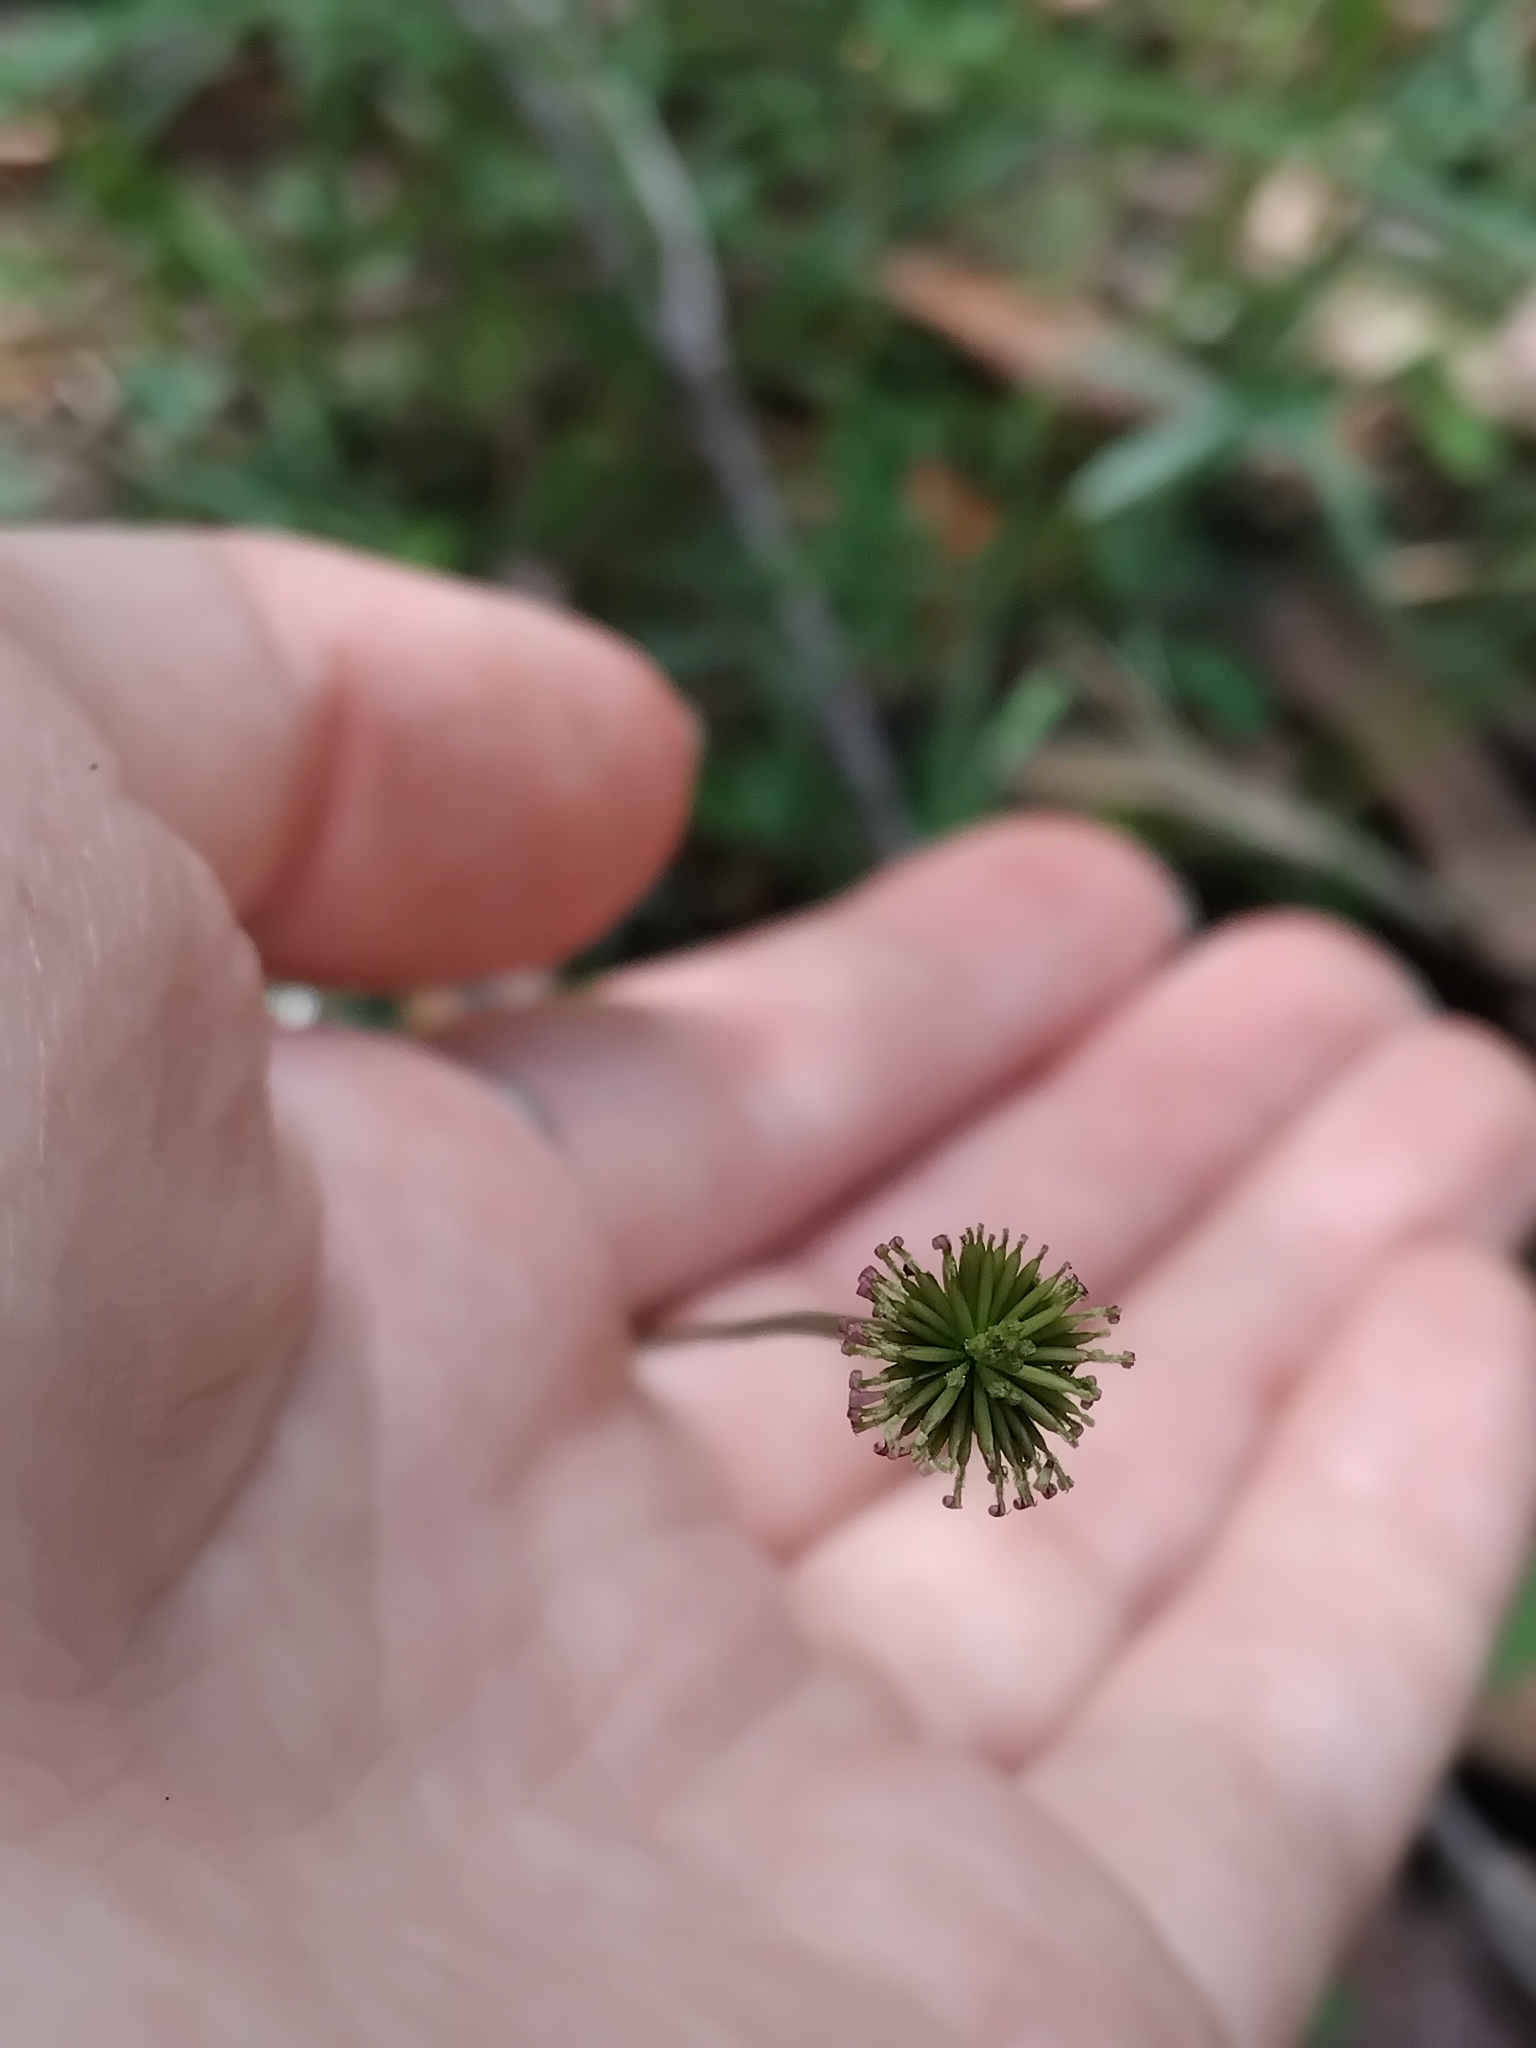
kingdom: Plantae
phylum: Tracheophyta
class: Magnoliopsida
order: Asterales
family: Asteraceae
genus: Lagenophora
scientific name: Lagenophora sublyrata ter
